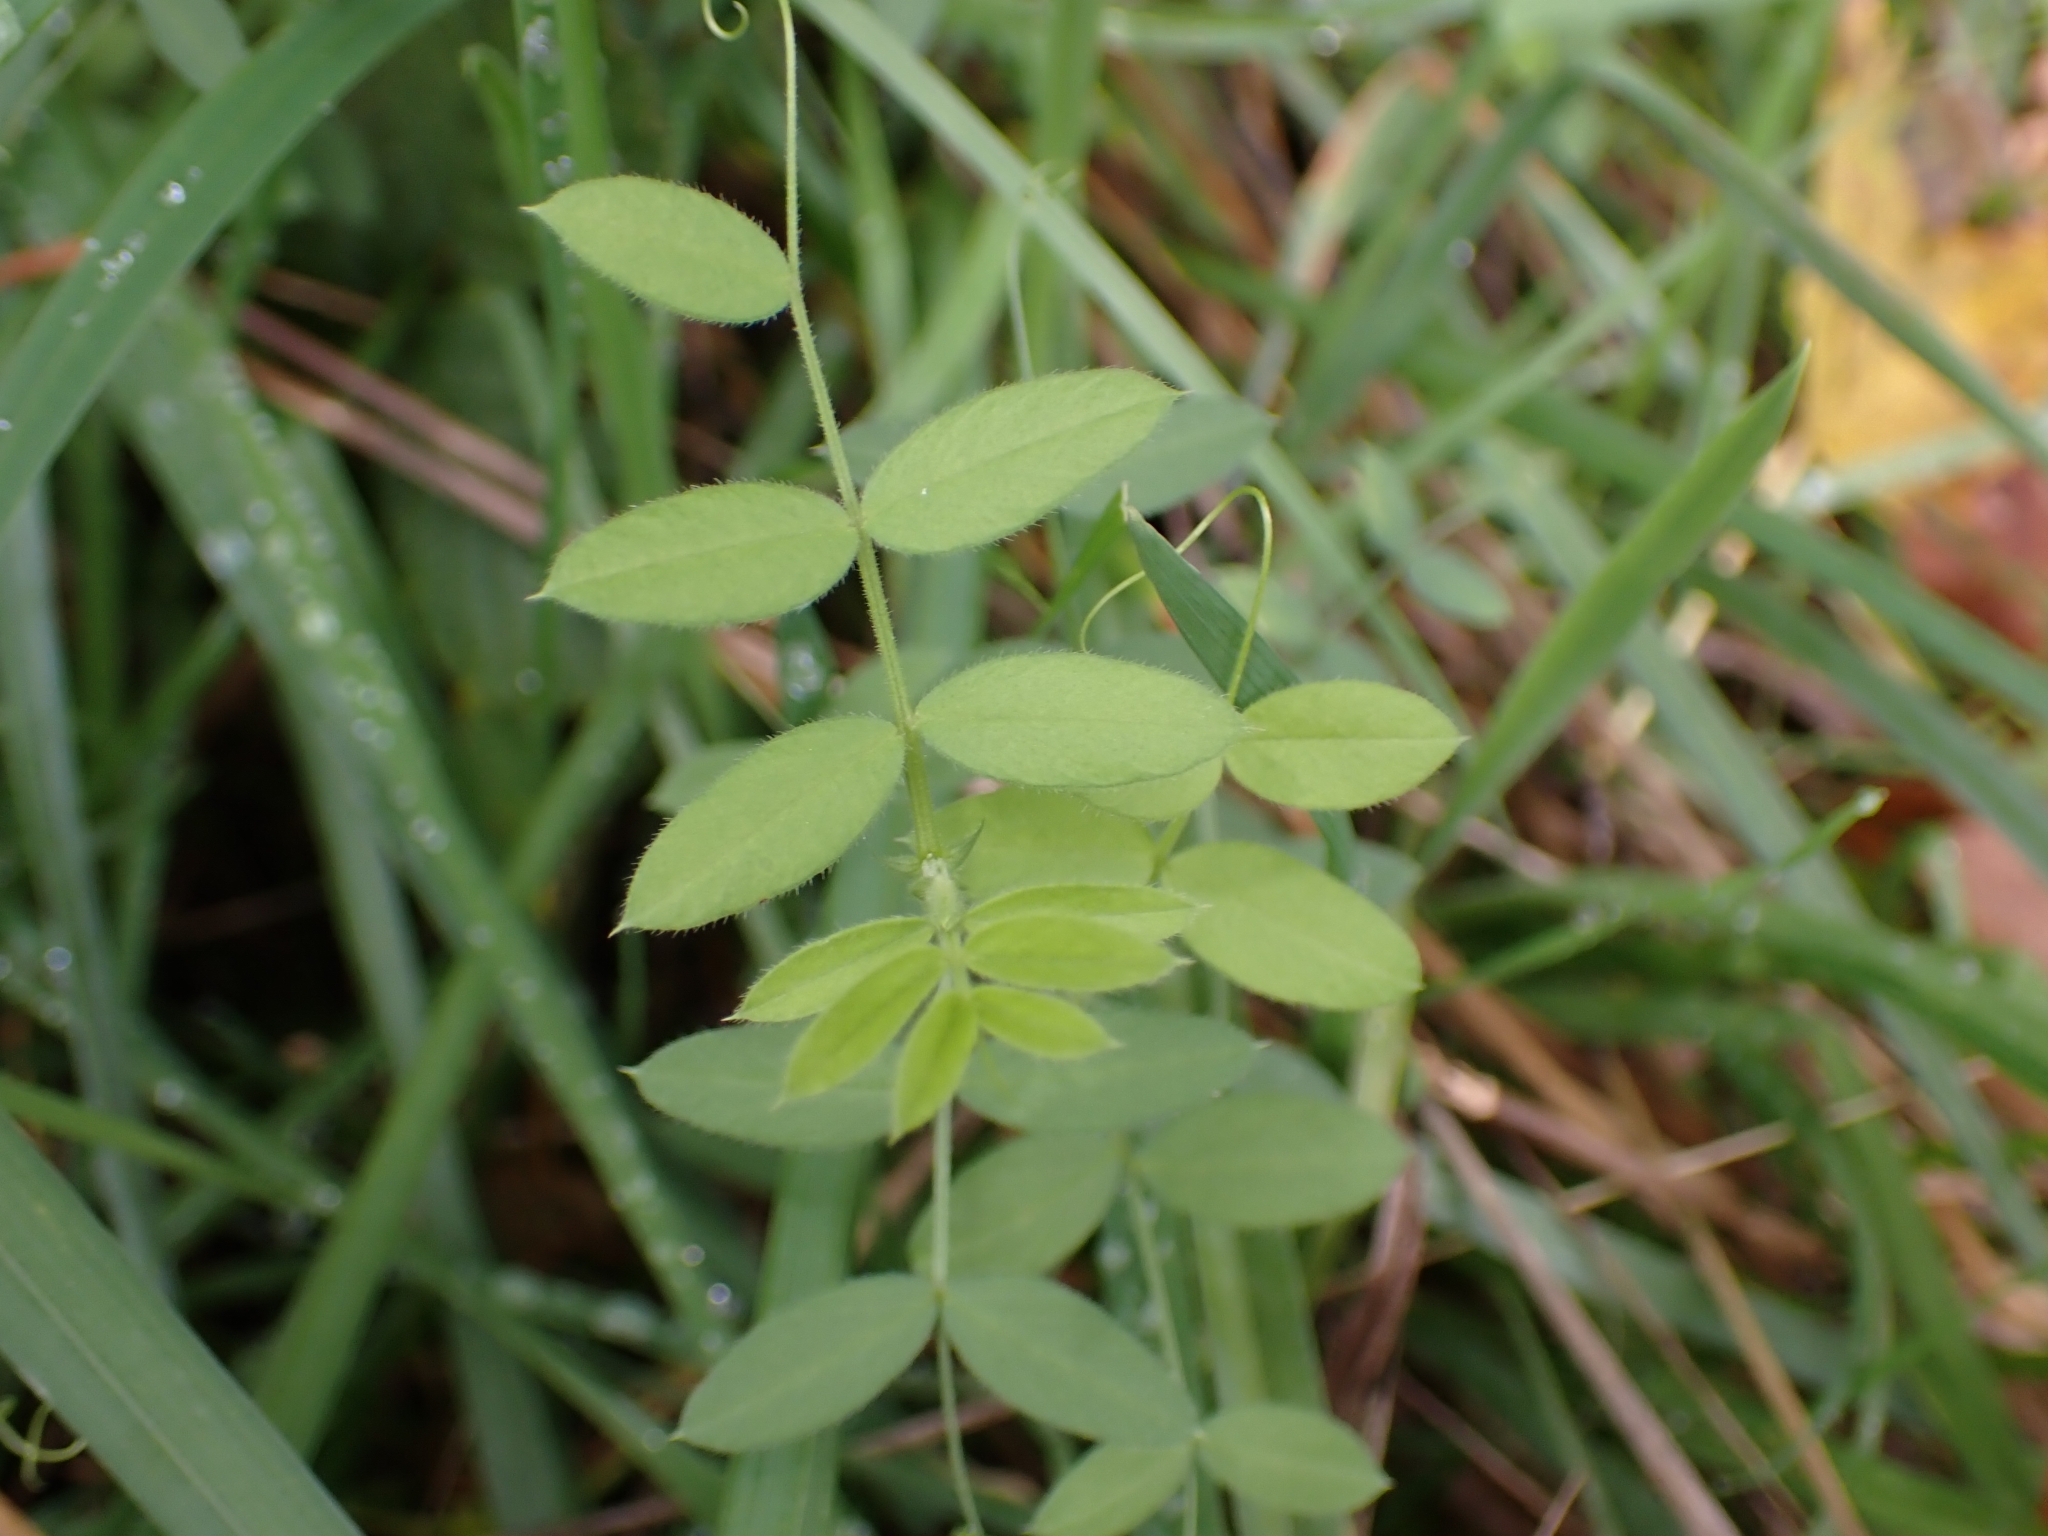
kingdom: Plantae
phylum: Tracheophyta
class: Magnoliopsida
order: Fabales
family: Fabaceae
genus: Vicia
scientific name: Vicia sepium
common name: Bush vetch
